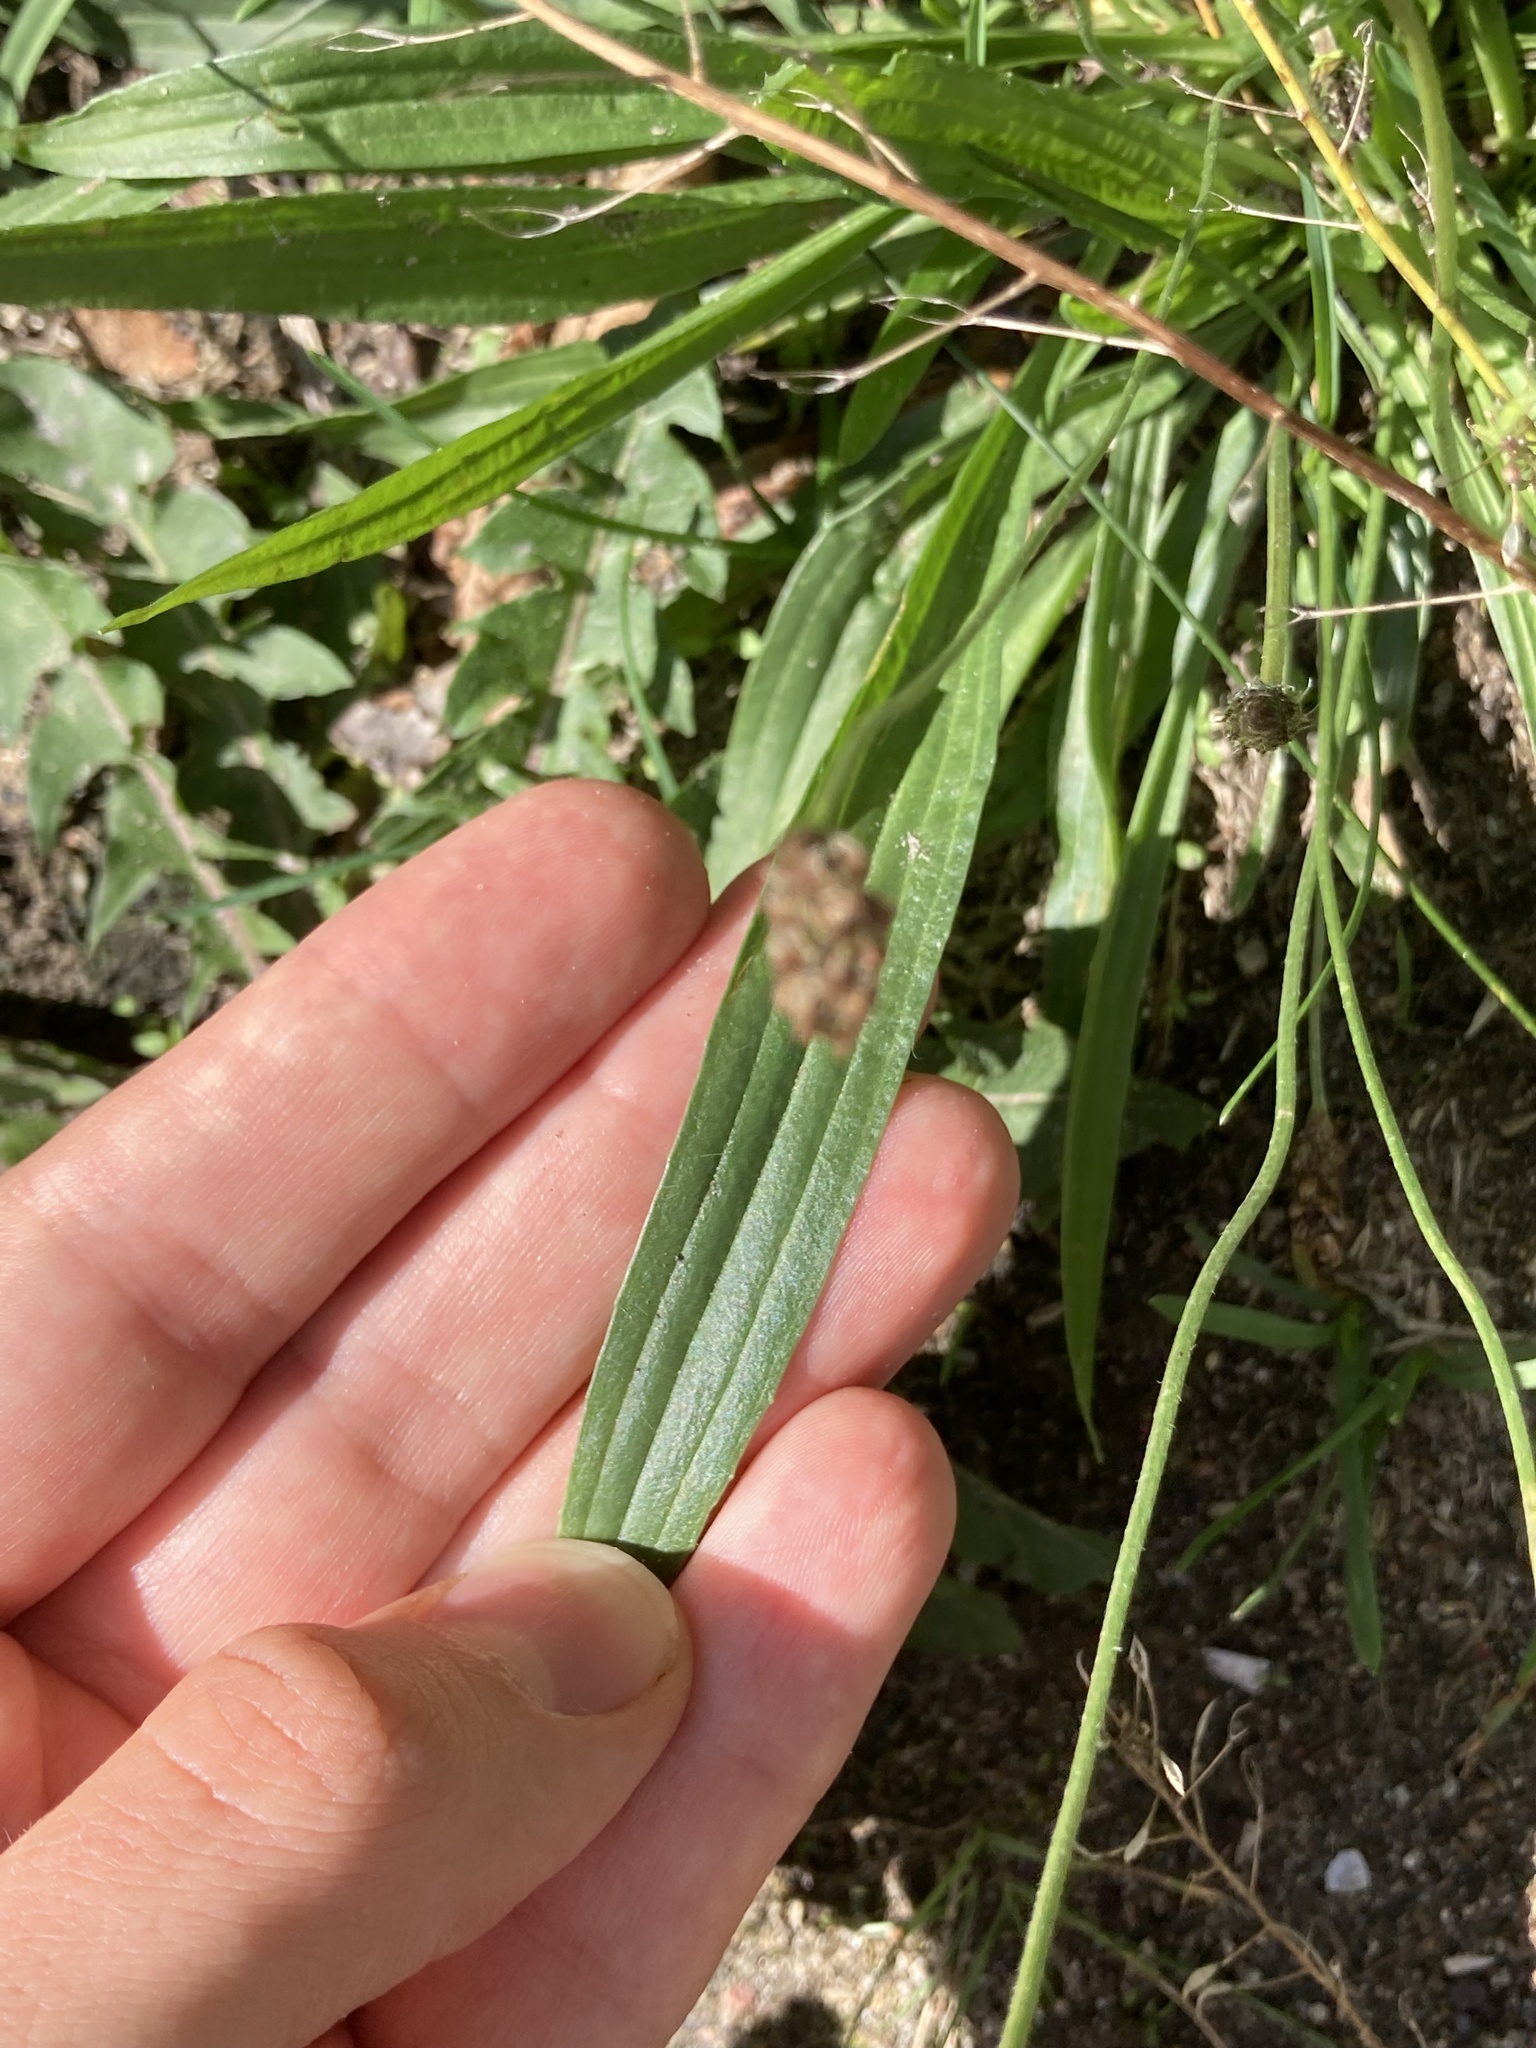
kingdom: Plantae
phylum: Tracheophyta
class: Magnoliopsida
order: Lamiales
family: Plantaginaceae
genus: Plantago
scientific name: Plantago lanceolata
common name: Ribwort plantain
